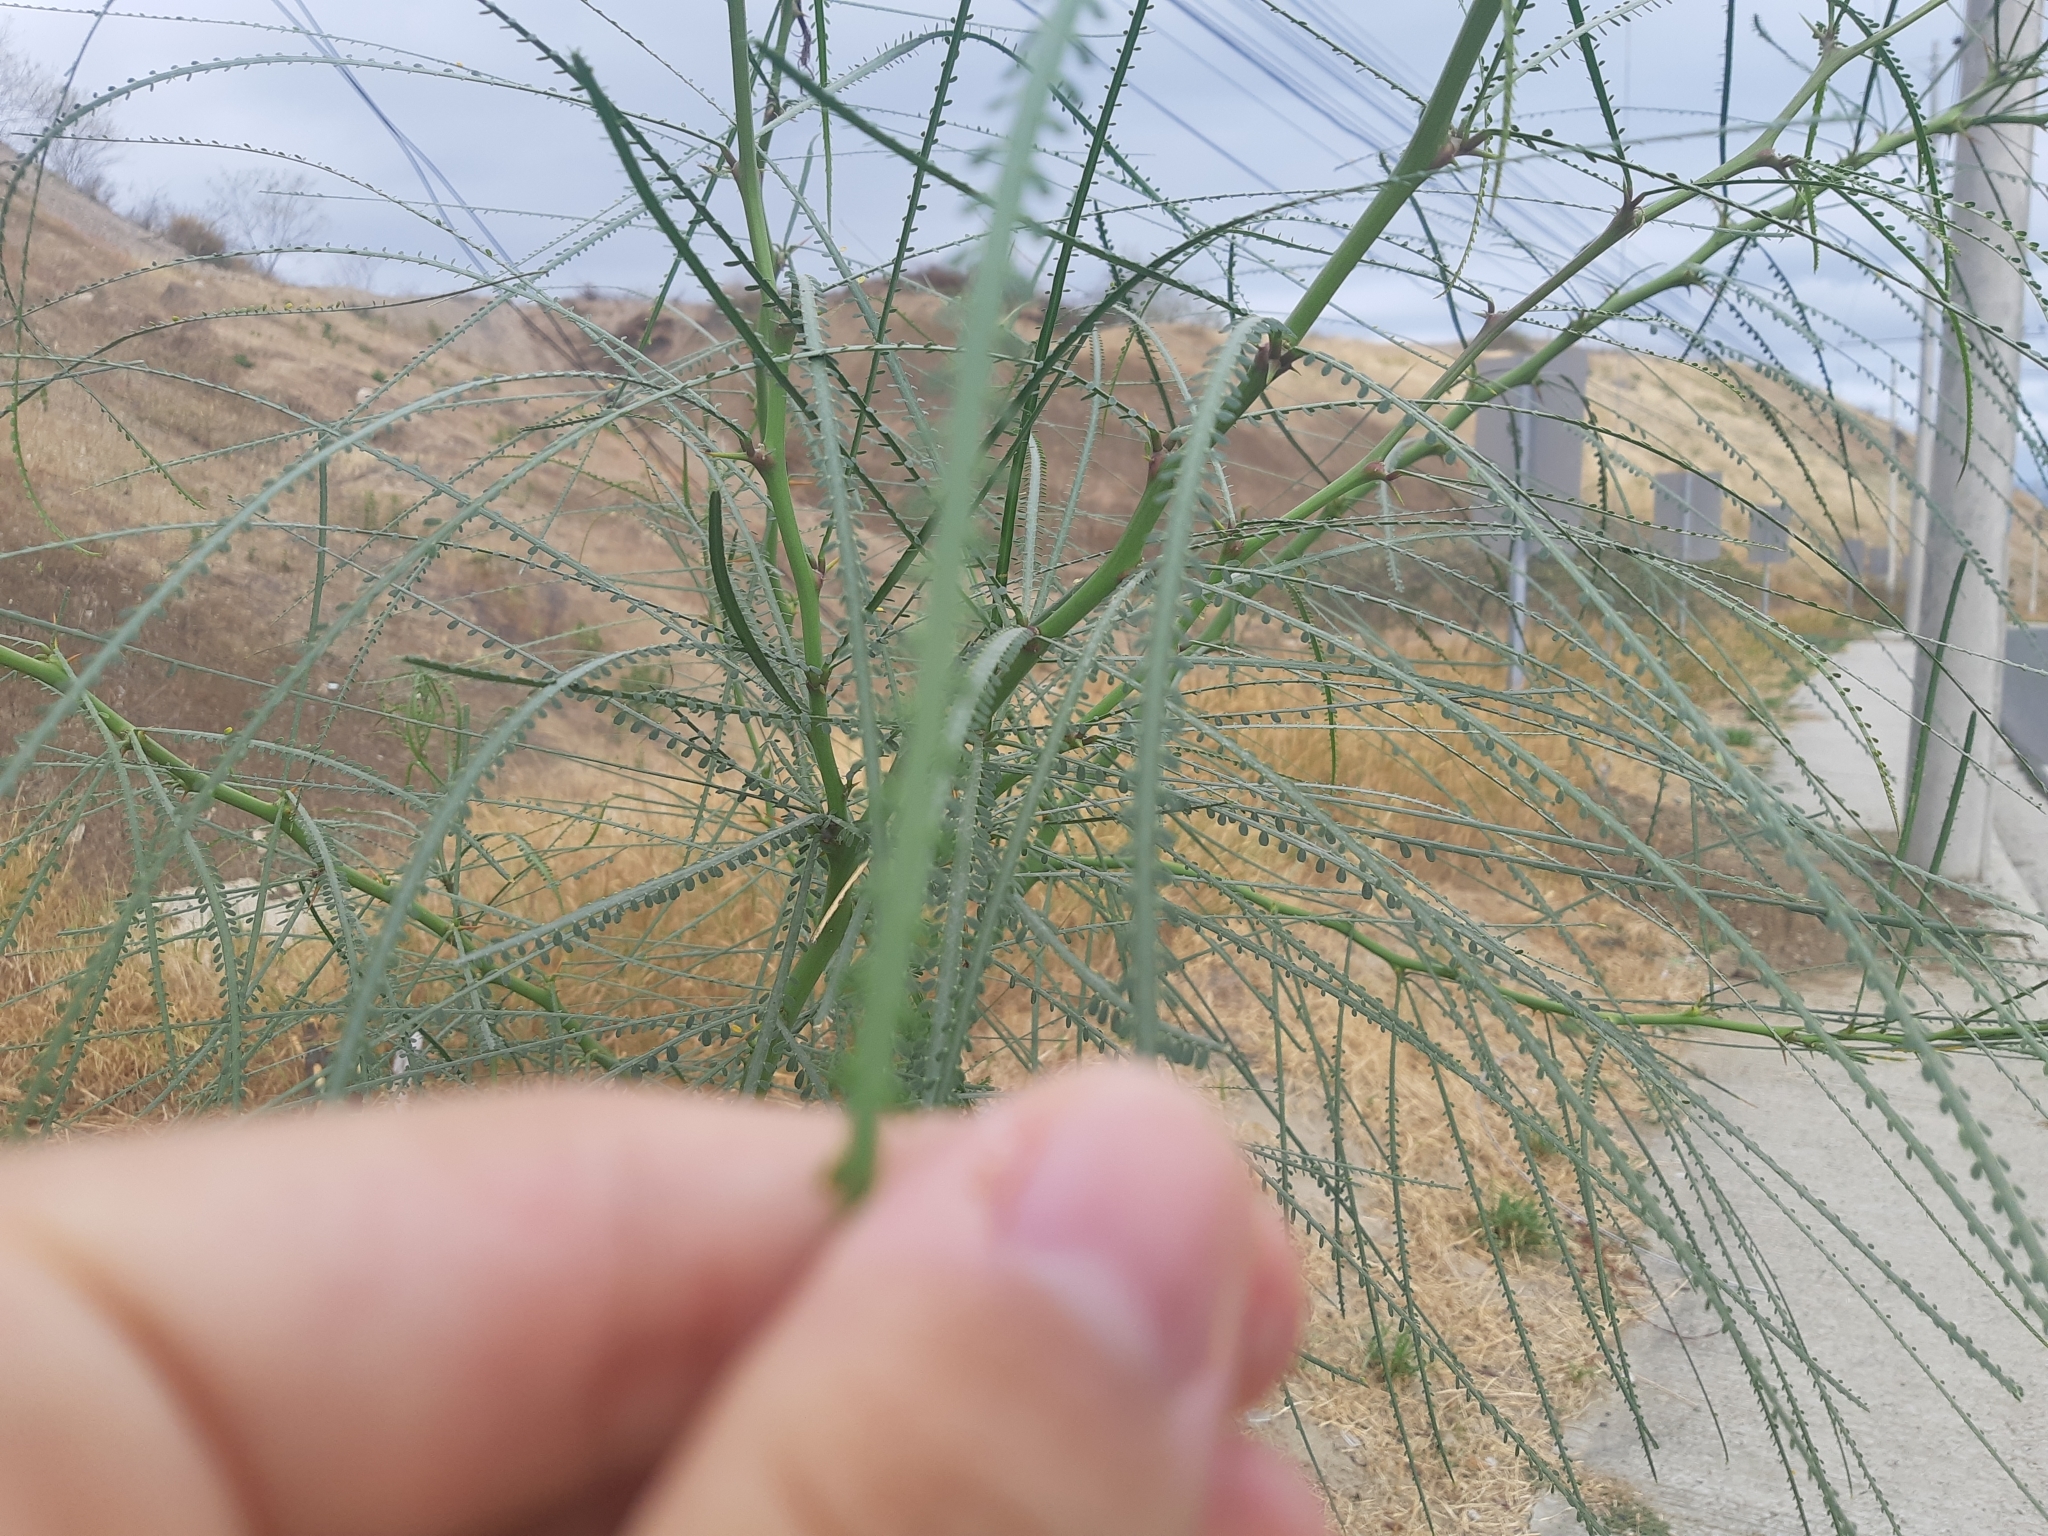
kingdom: Plantae
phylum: Tracheophyta
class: Magnoliopsida
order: Fabales
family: Fabaceae
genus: Parkinsonia
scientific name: Parkinsonia aculeata
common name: Jerusalem thorn
